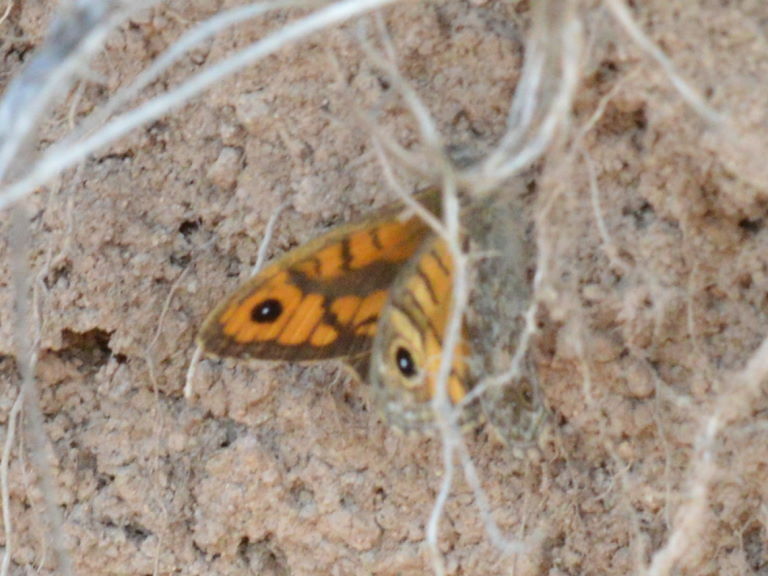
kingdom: Animalia
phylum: Arthropoda
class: Insecta
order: Lepidoptera
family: Nymphalidae
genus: Pararge
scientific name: Pararge Lasiommata megera
